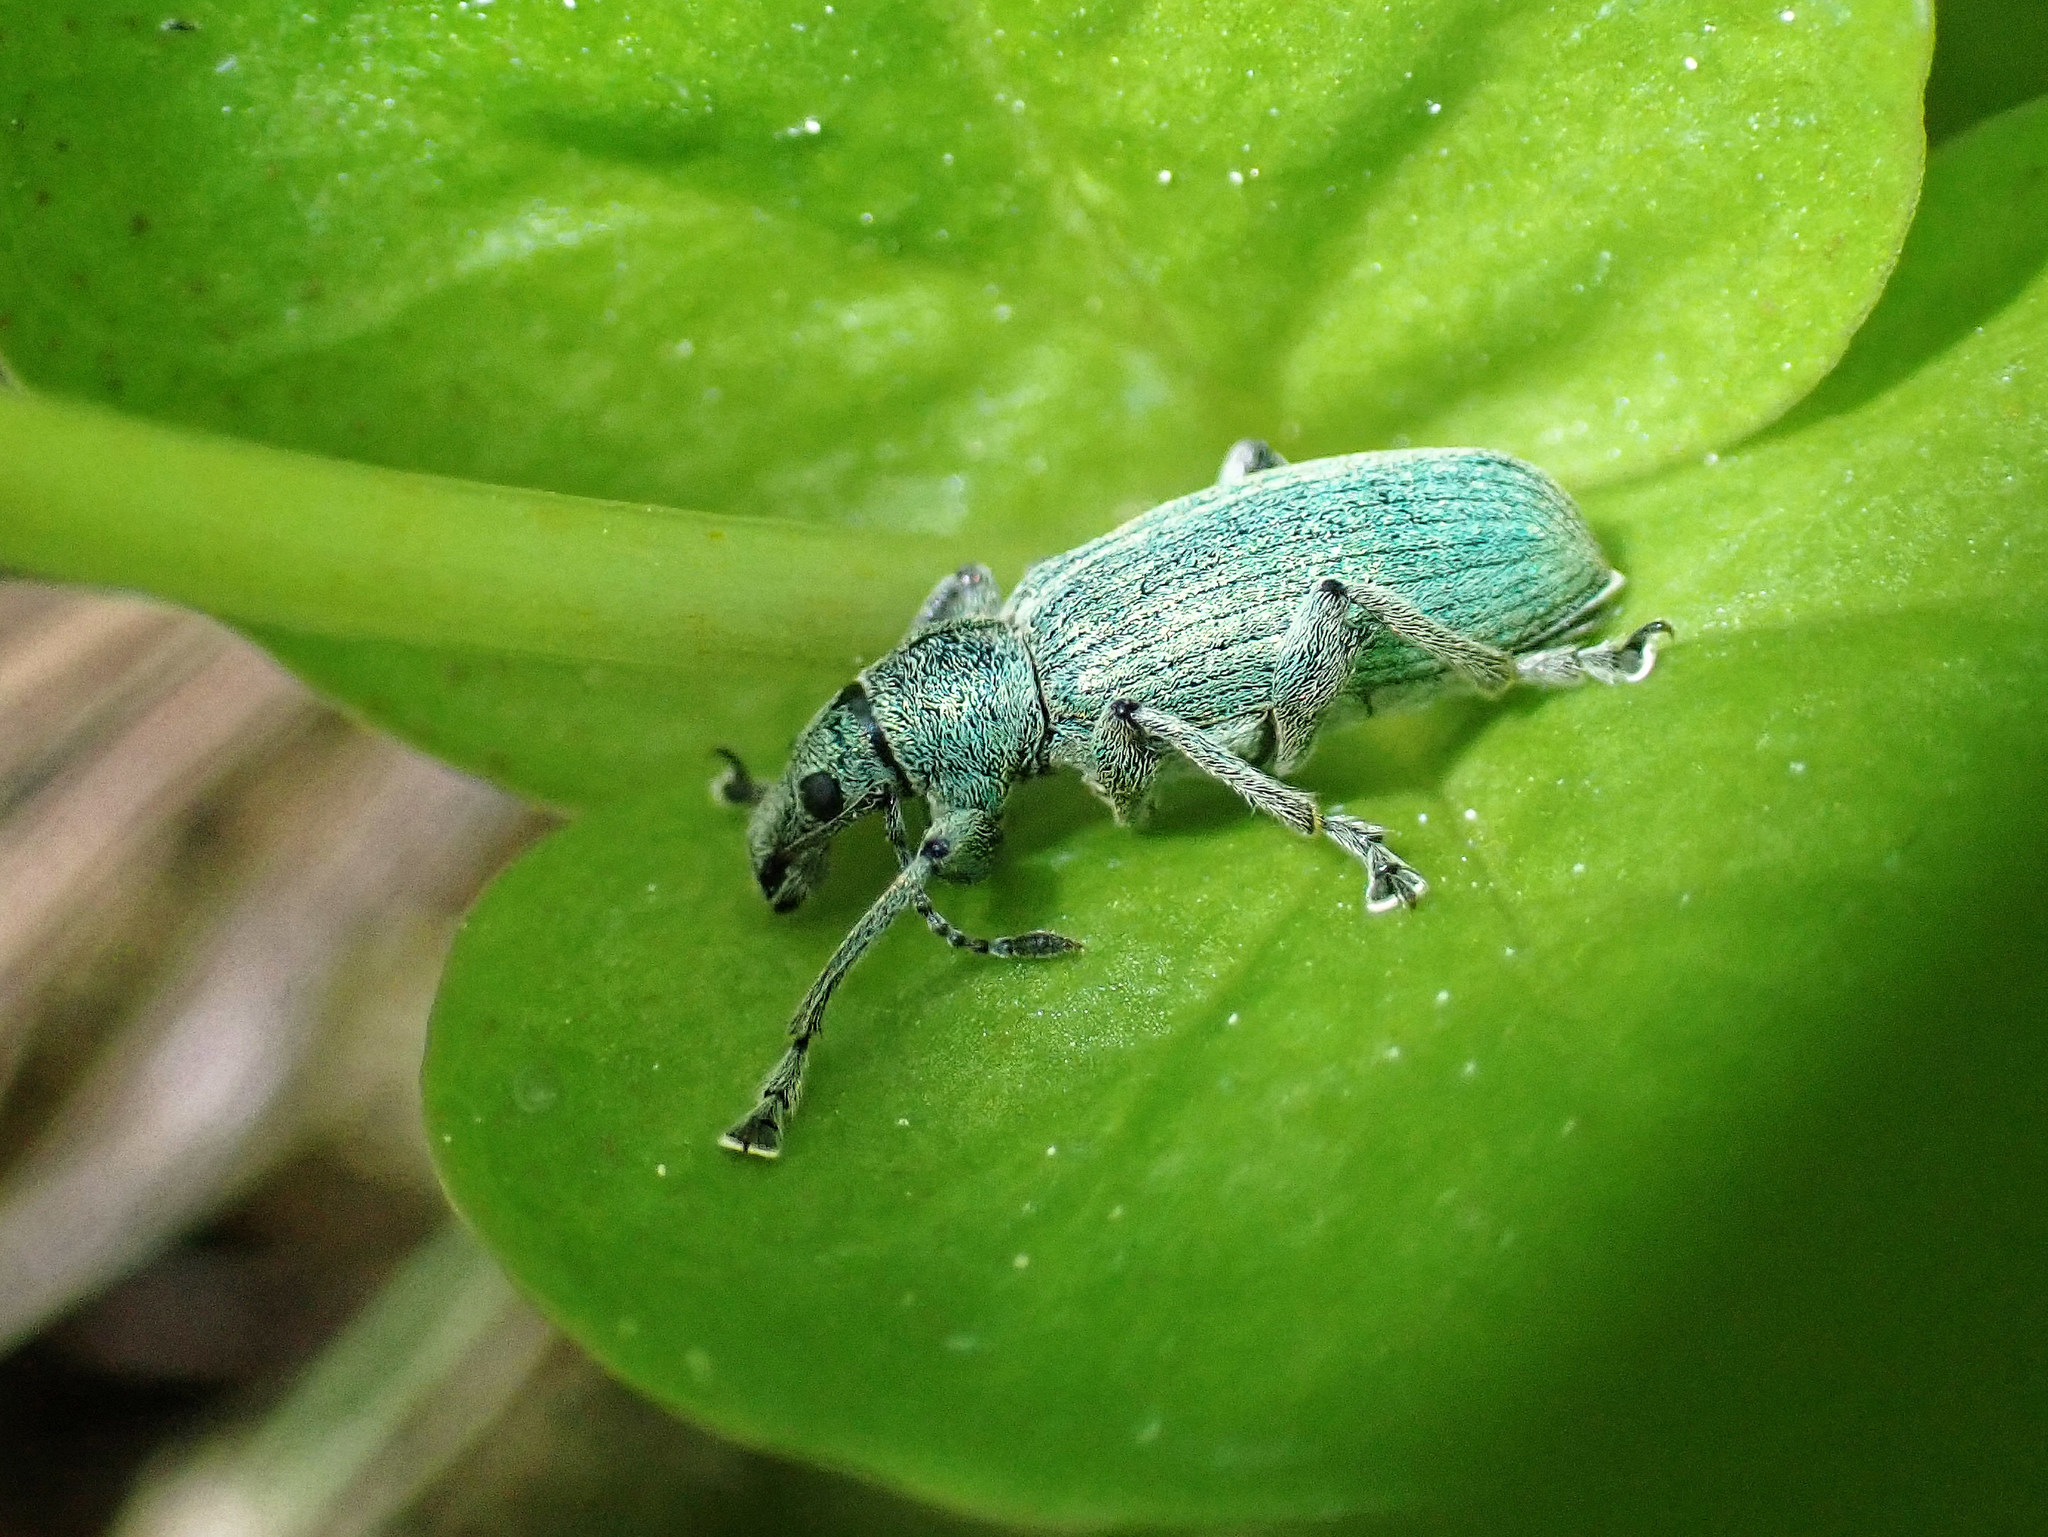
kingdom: Animalia
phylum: Arthropoda
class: Insecta
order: Coleoptera
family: Curculionidae
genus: Phyllobius
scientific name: Phyllobius pomaceus
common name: Green nettle weevil
